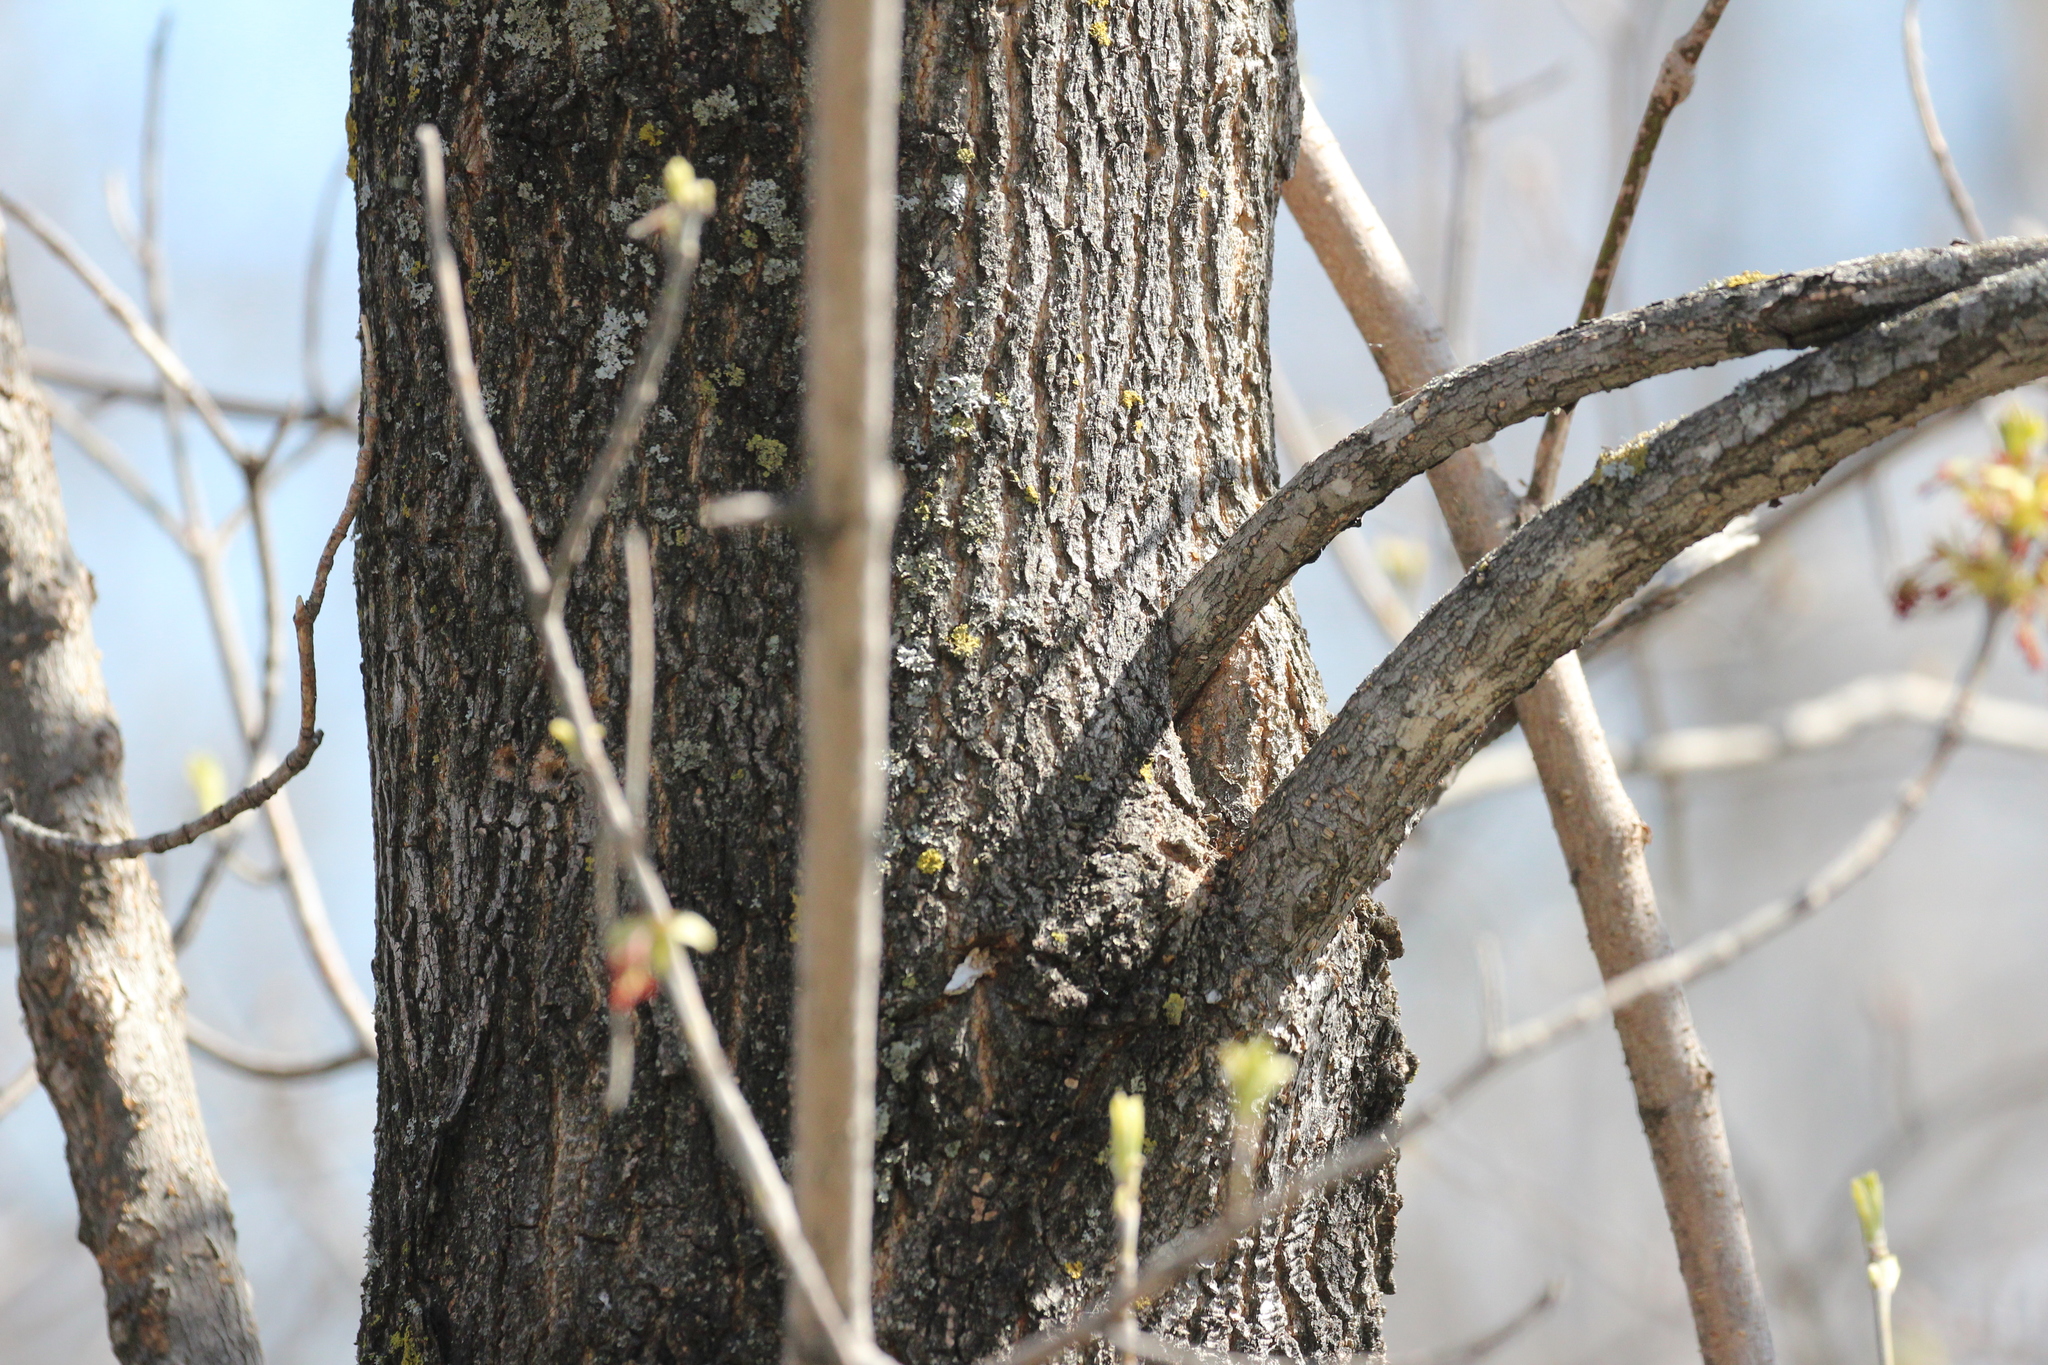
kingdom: Plantae
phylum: Tracheophyta
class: Magnoliopsida
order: Sapindales
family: Sapindaceae
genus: Acer
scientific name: Acer negundo
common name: Ashleaf maple
